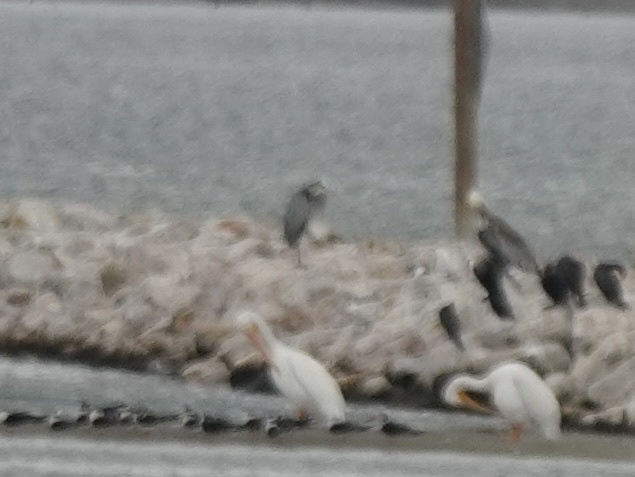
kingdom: Animalia
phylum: Chordata
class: Aves
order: Pelecaniformes
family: Ardeidae
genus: Ardea
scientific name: Ardea herodias
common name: Great blue heron
